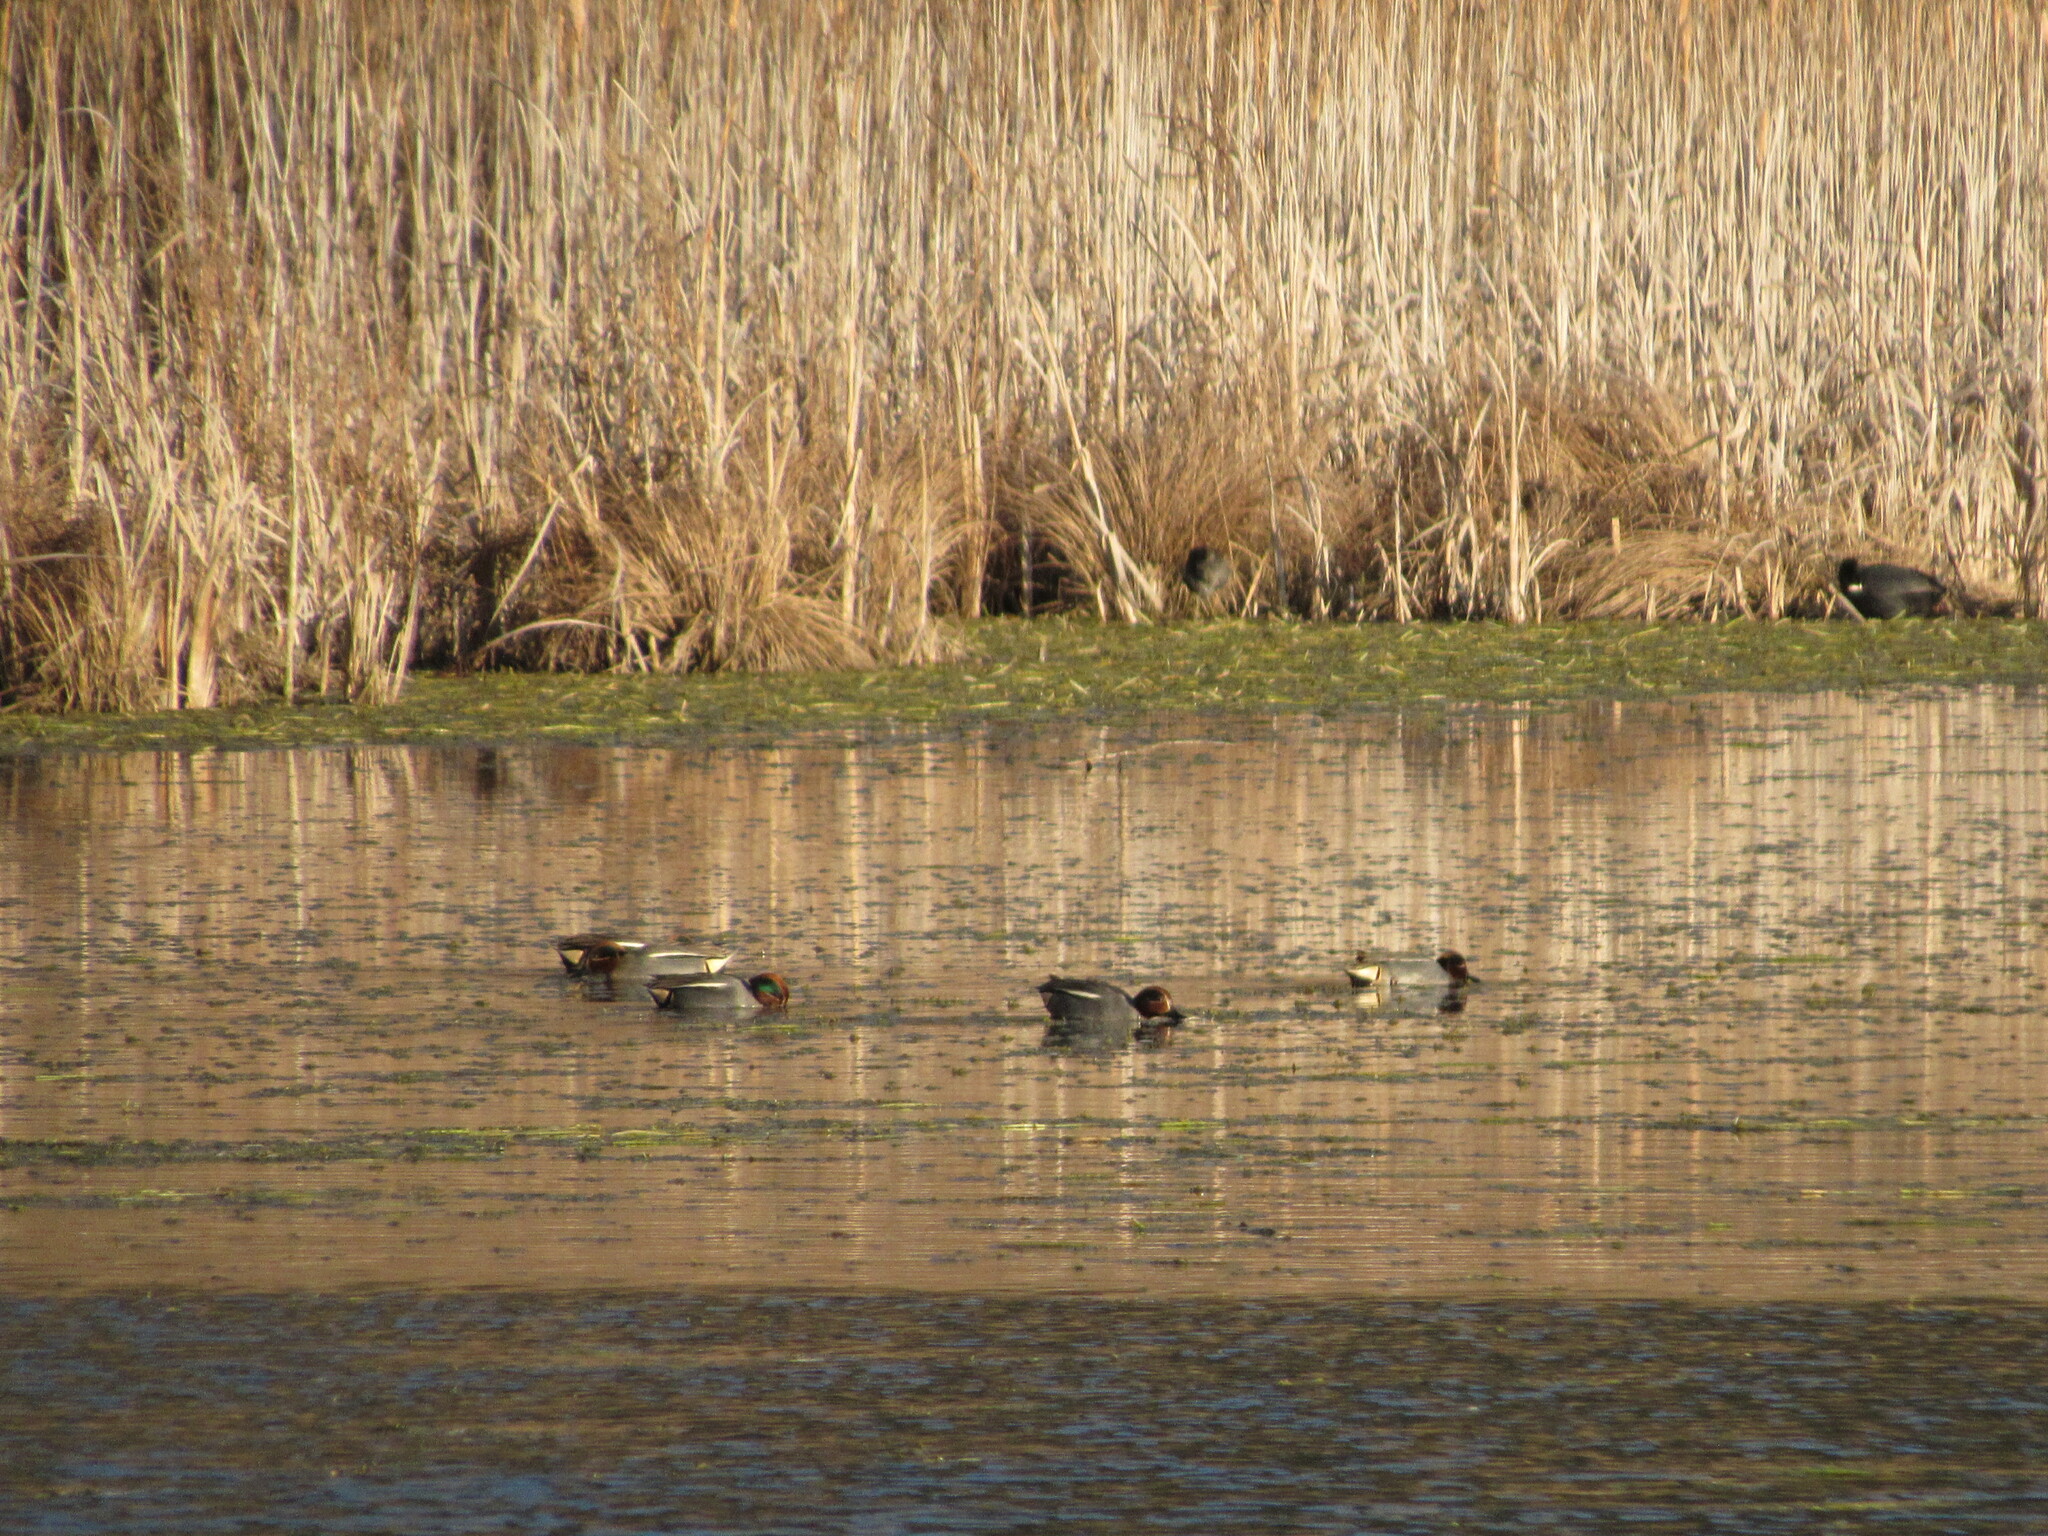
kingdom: Animalia
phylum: Chordata
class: Aves
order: Anseriformes
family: Anatidae
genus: Anas
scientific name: Anas crecca
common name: Eurasian teal
